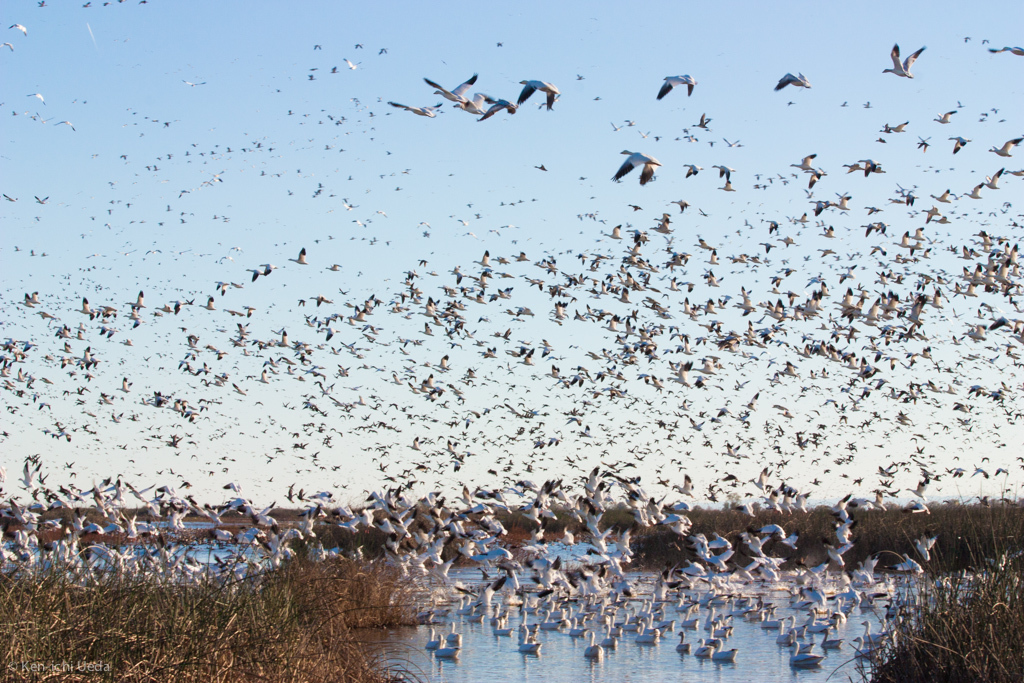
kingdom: Animalia
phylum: Chordata
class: Aves
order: Anseriformes
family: Anatidae
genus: Anser
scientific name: Anser caerulescens
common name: Snow goose
